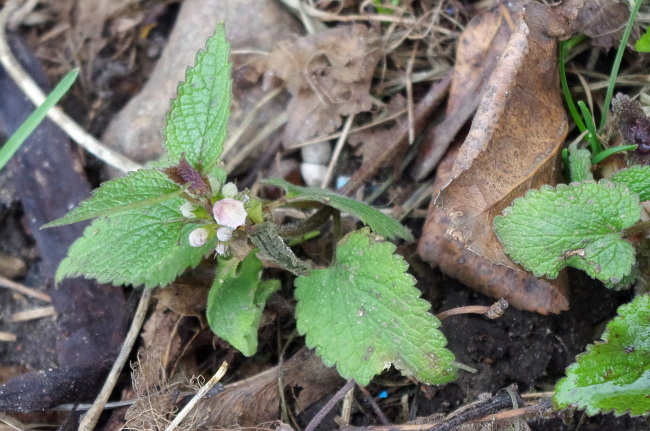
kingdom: Plantae
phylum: Tracheophyta
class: Magnoliopsida
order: Lamiales
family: Lamiaceae
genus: Lamium
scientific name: Lamium album
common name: White dead-nettle
